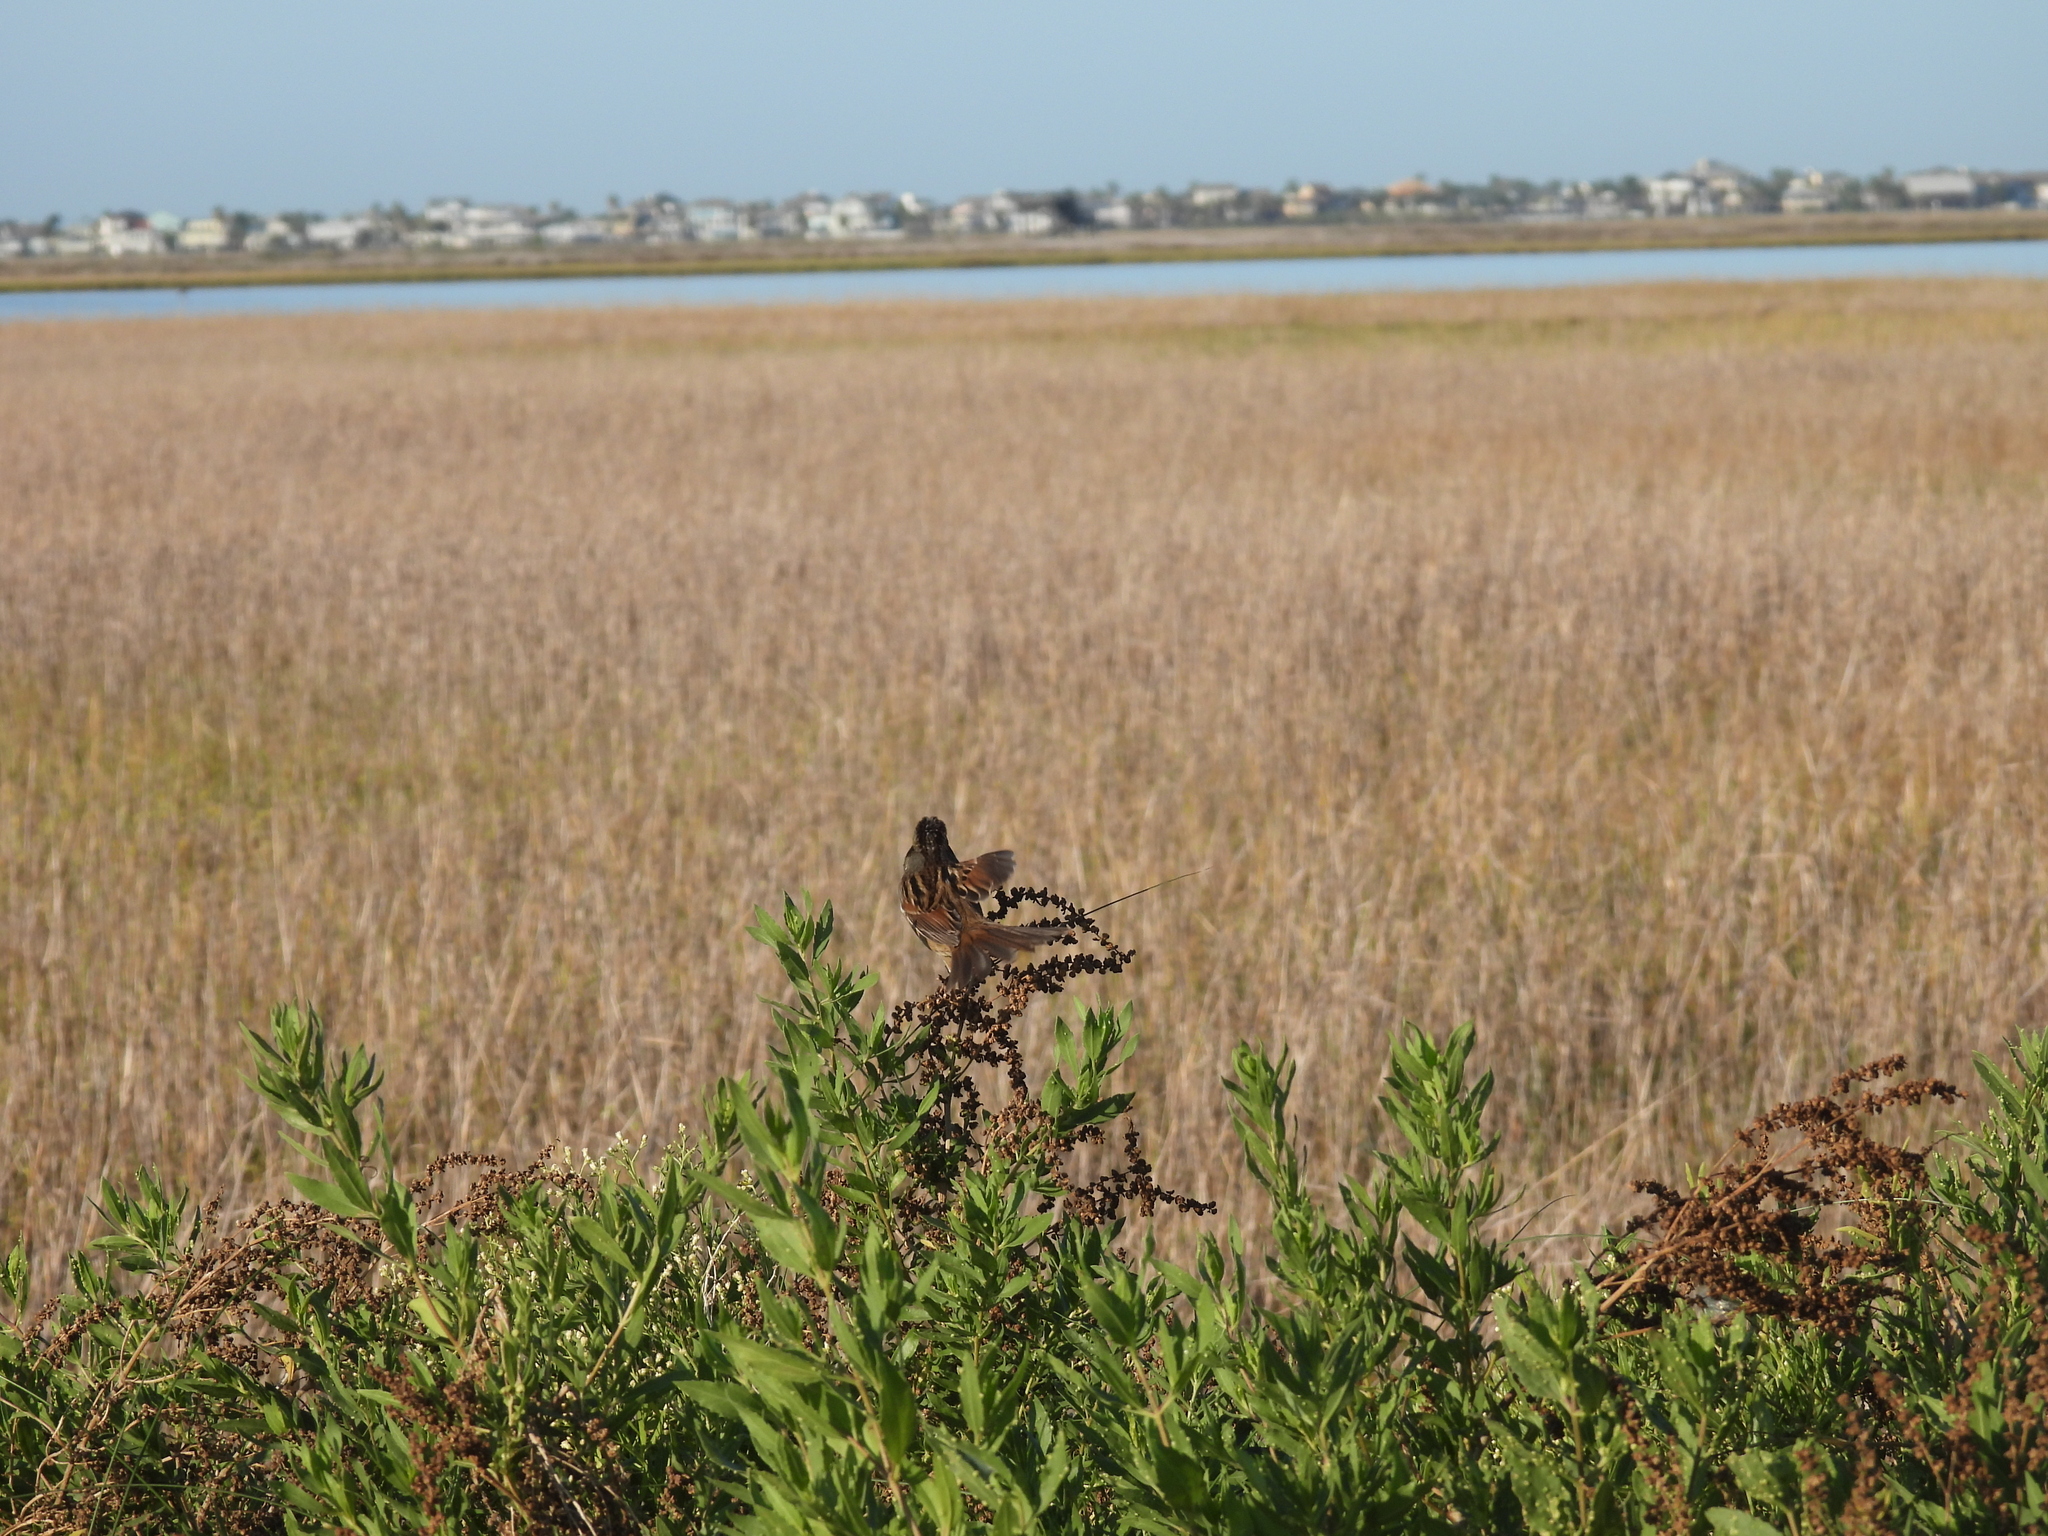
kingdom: Animalia
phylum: Chordata
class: Aves
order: Passeriformes
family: Passerellidae
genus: Melospiza
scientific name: Melospiza georgiana
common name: Swamp sparrow
